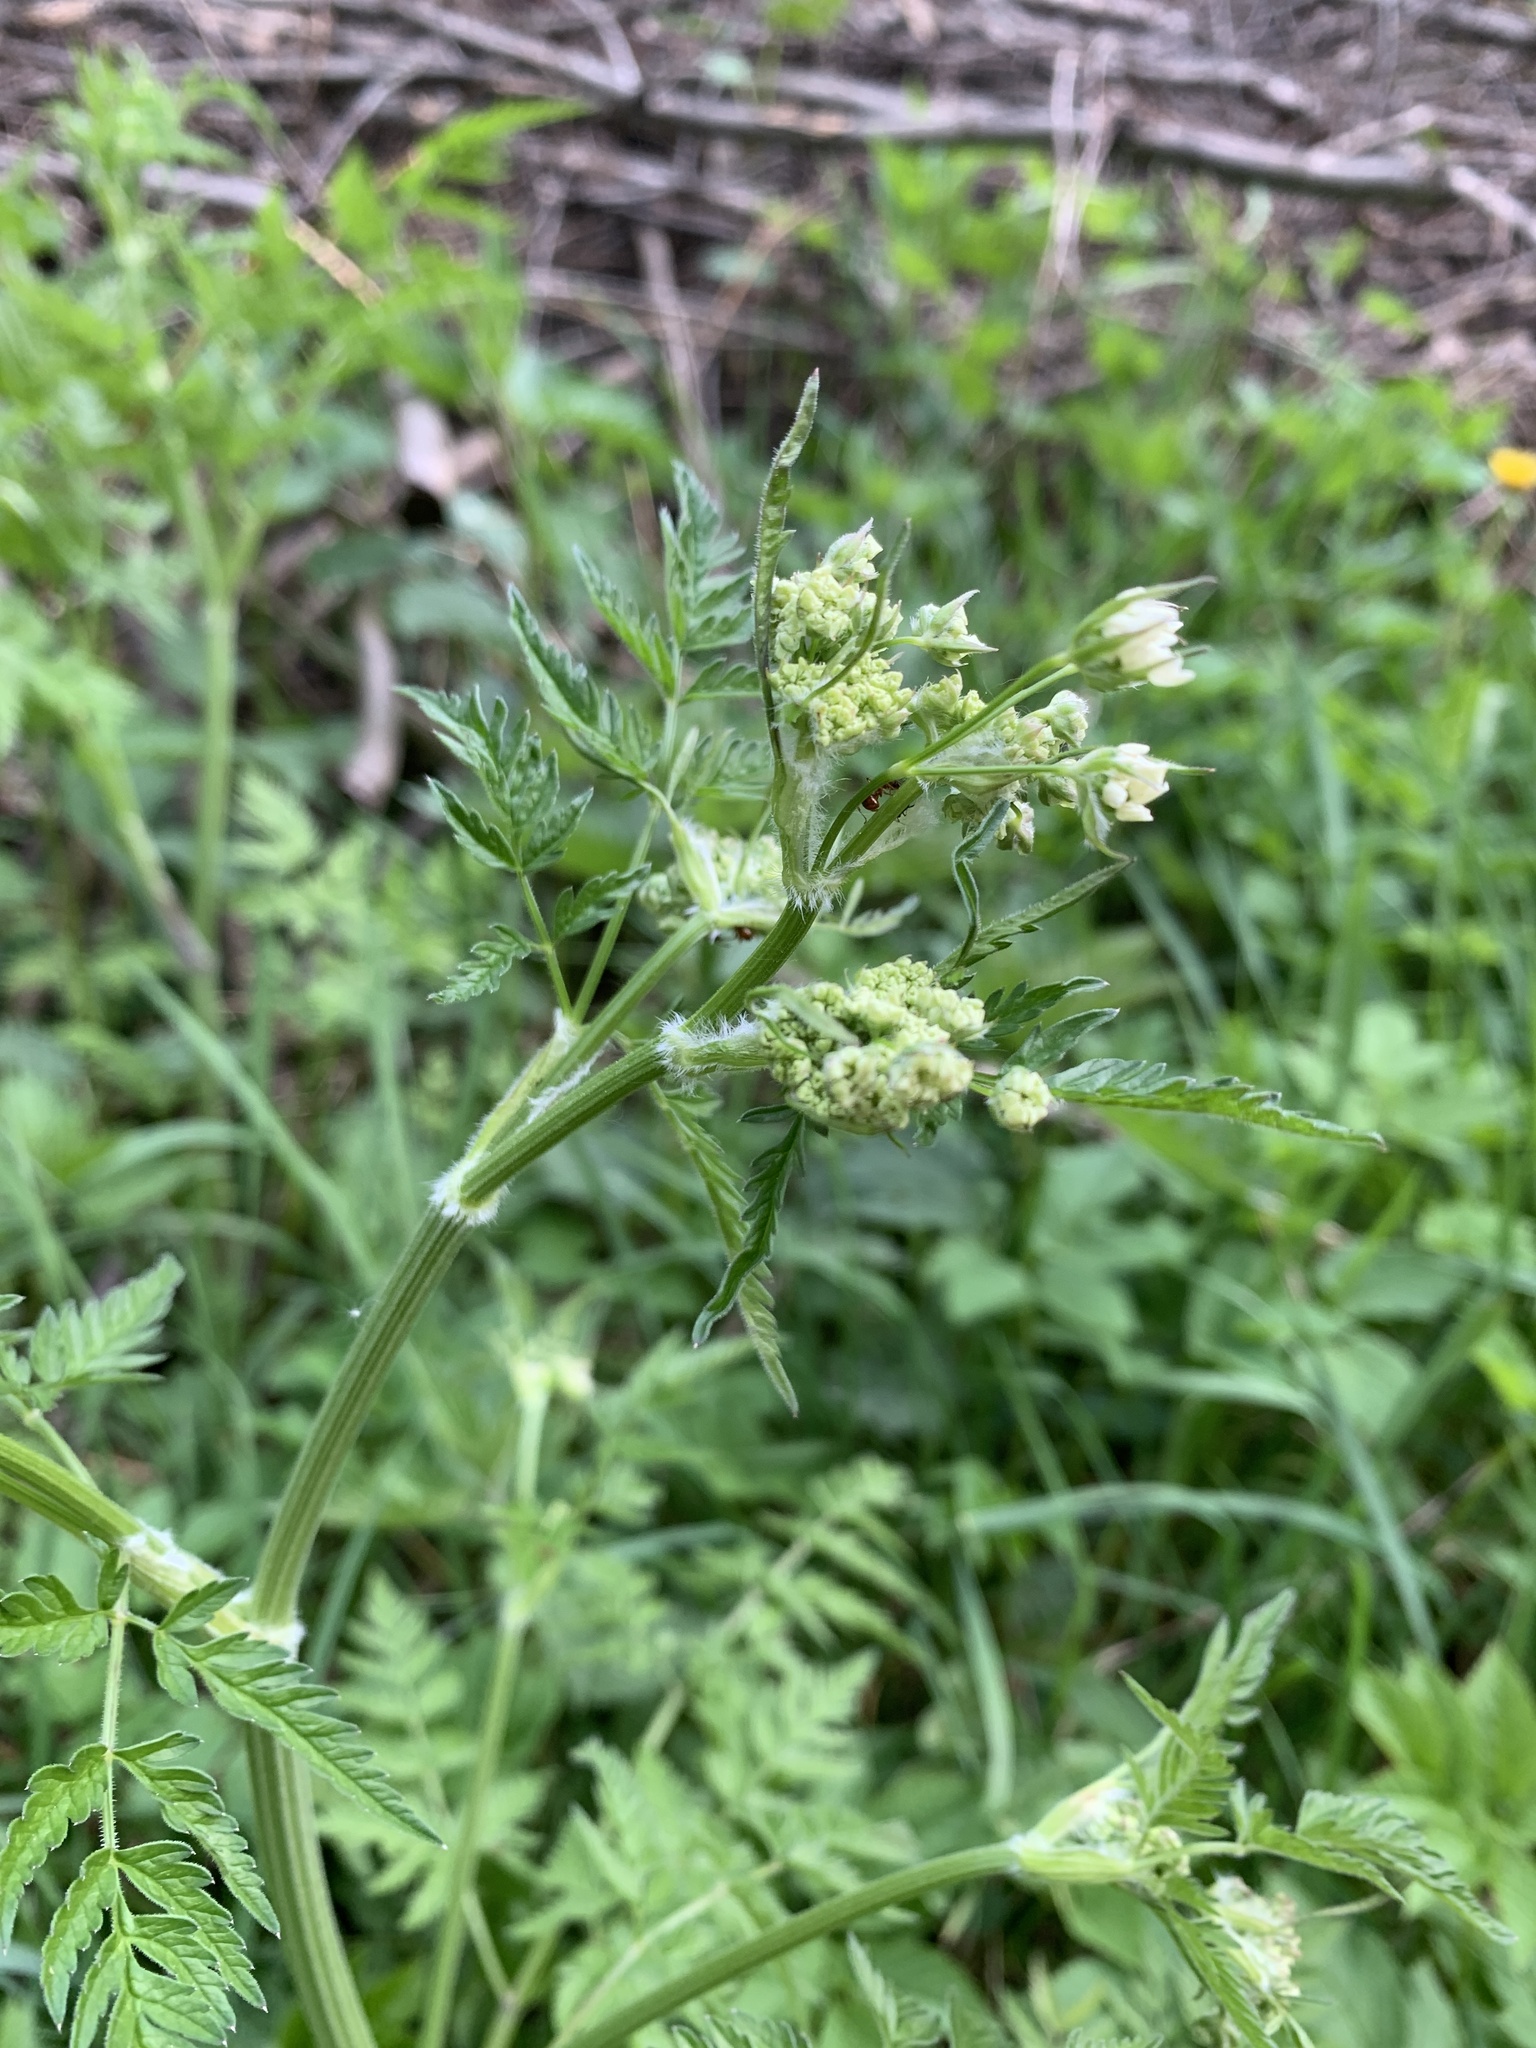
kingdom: Plantae
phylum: Tracheophyta
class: Magnoliopsida
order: Apiales
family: Apiaceae
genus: Anthriscus
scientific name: Anthriscus sylvestris
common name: Cow parsley
